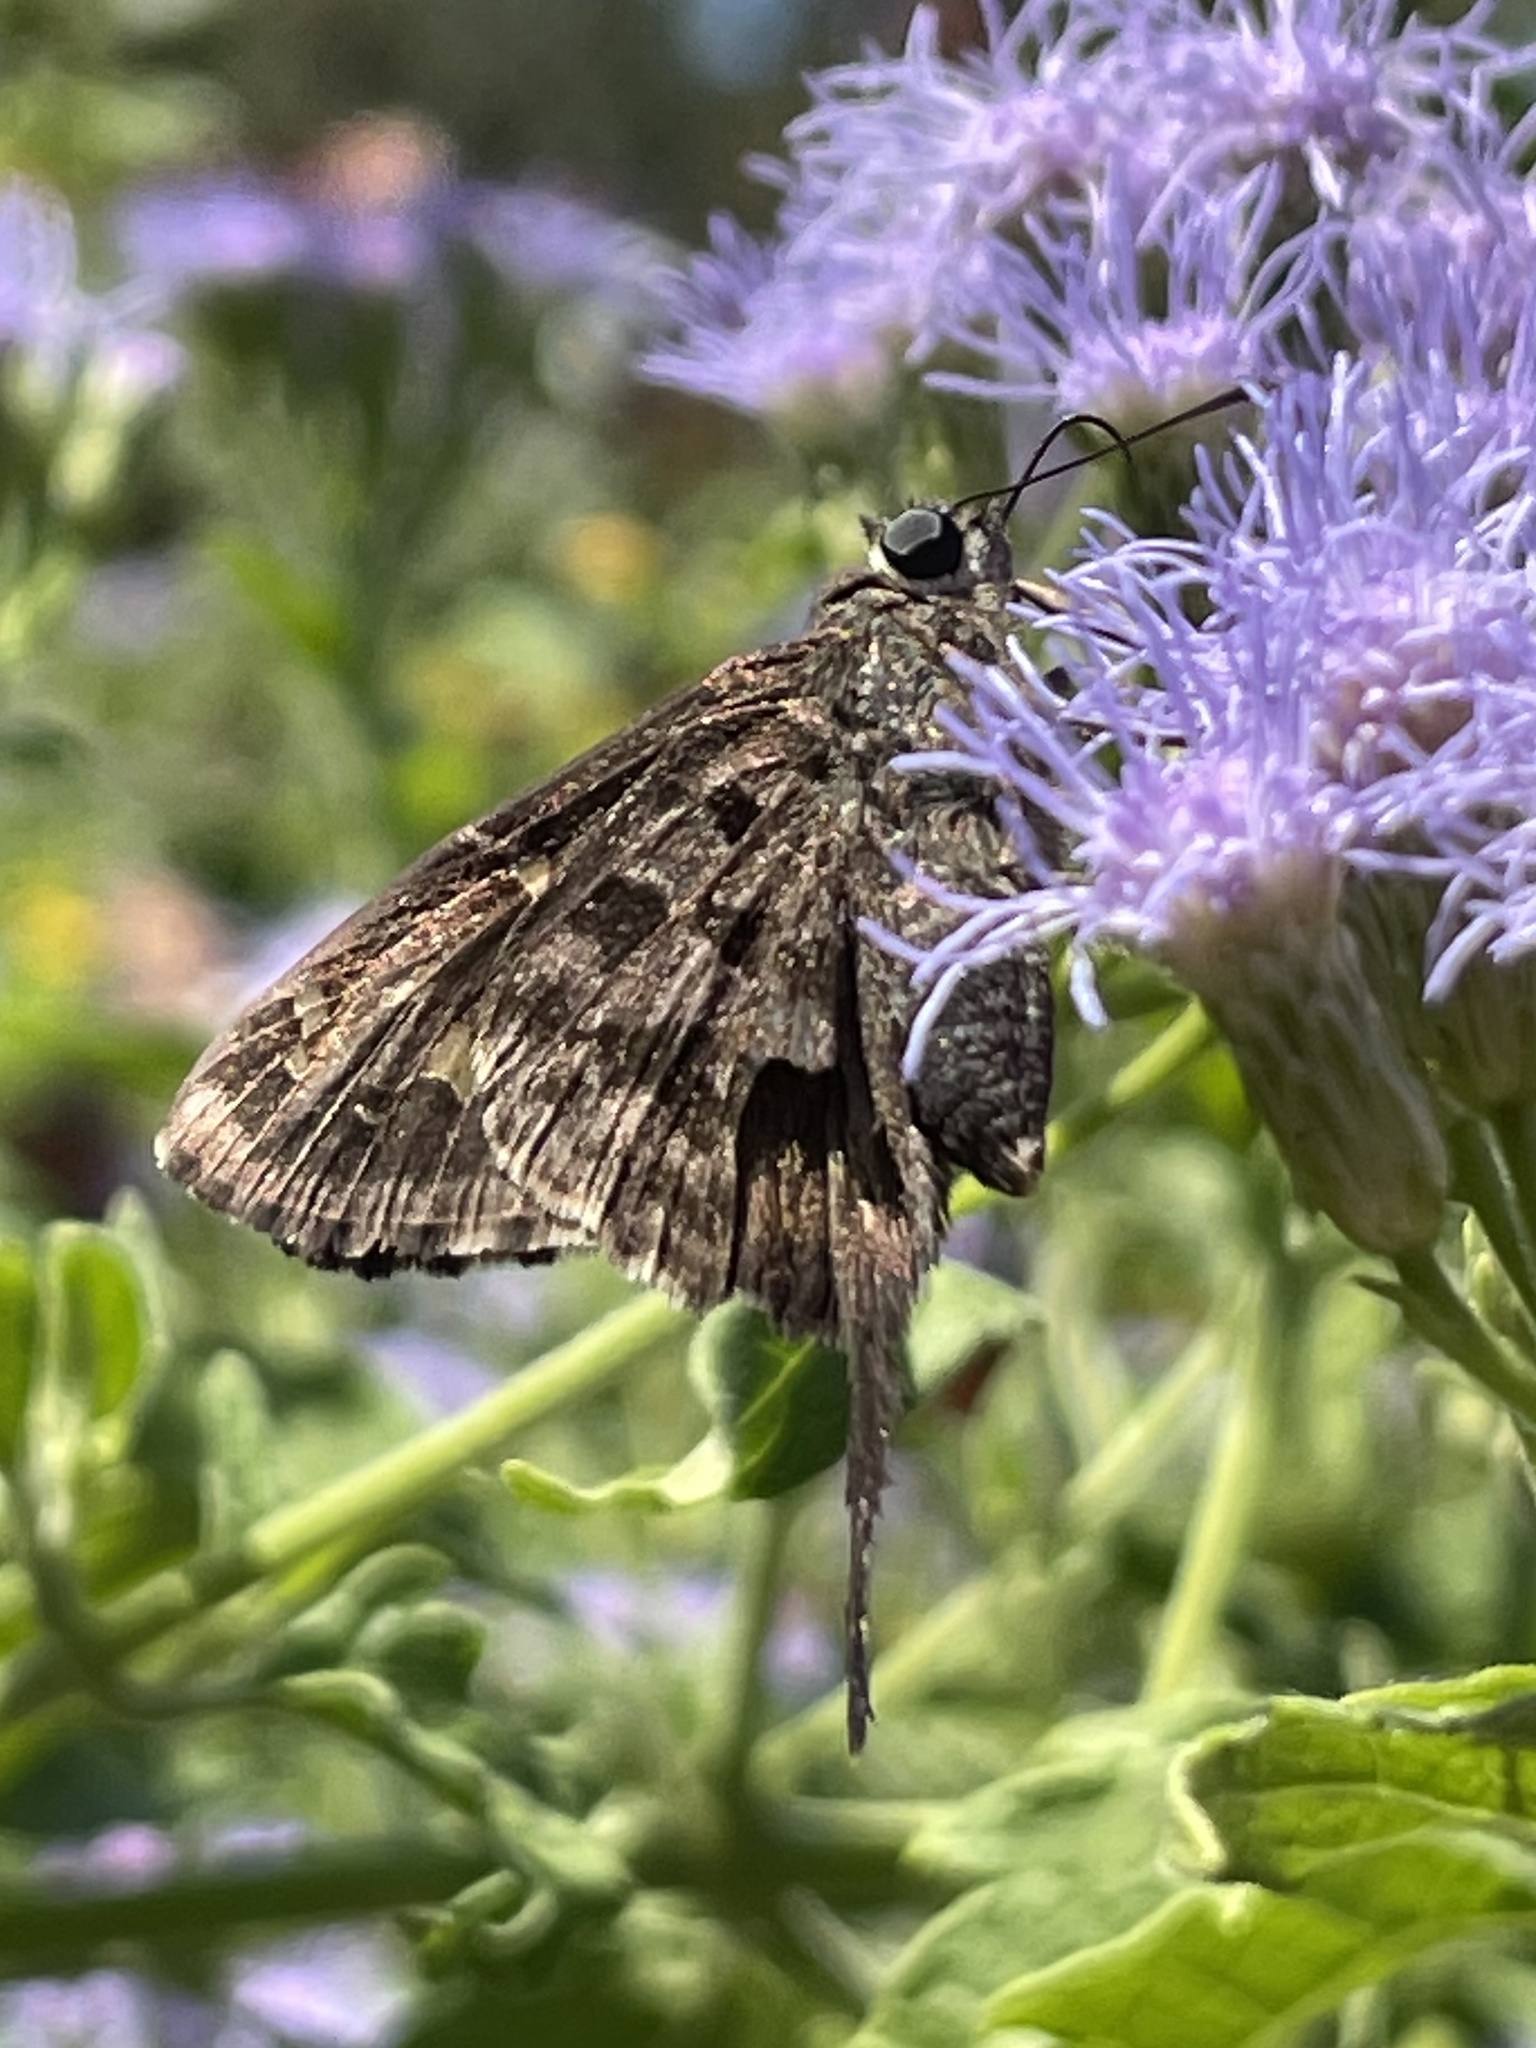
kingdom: Animalia
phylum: Arthropoda
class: Insecta
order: Lepidoptera
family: Hesperiidae
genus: Thorybes
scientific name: Thorybes
